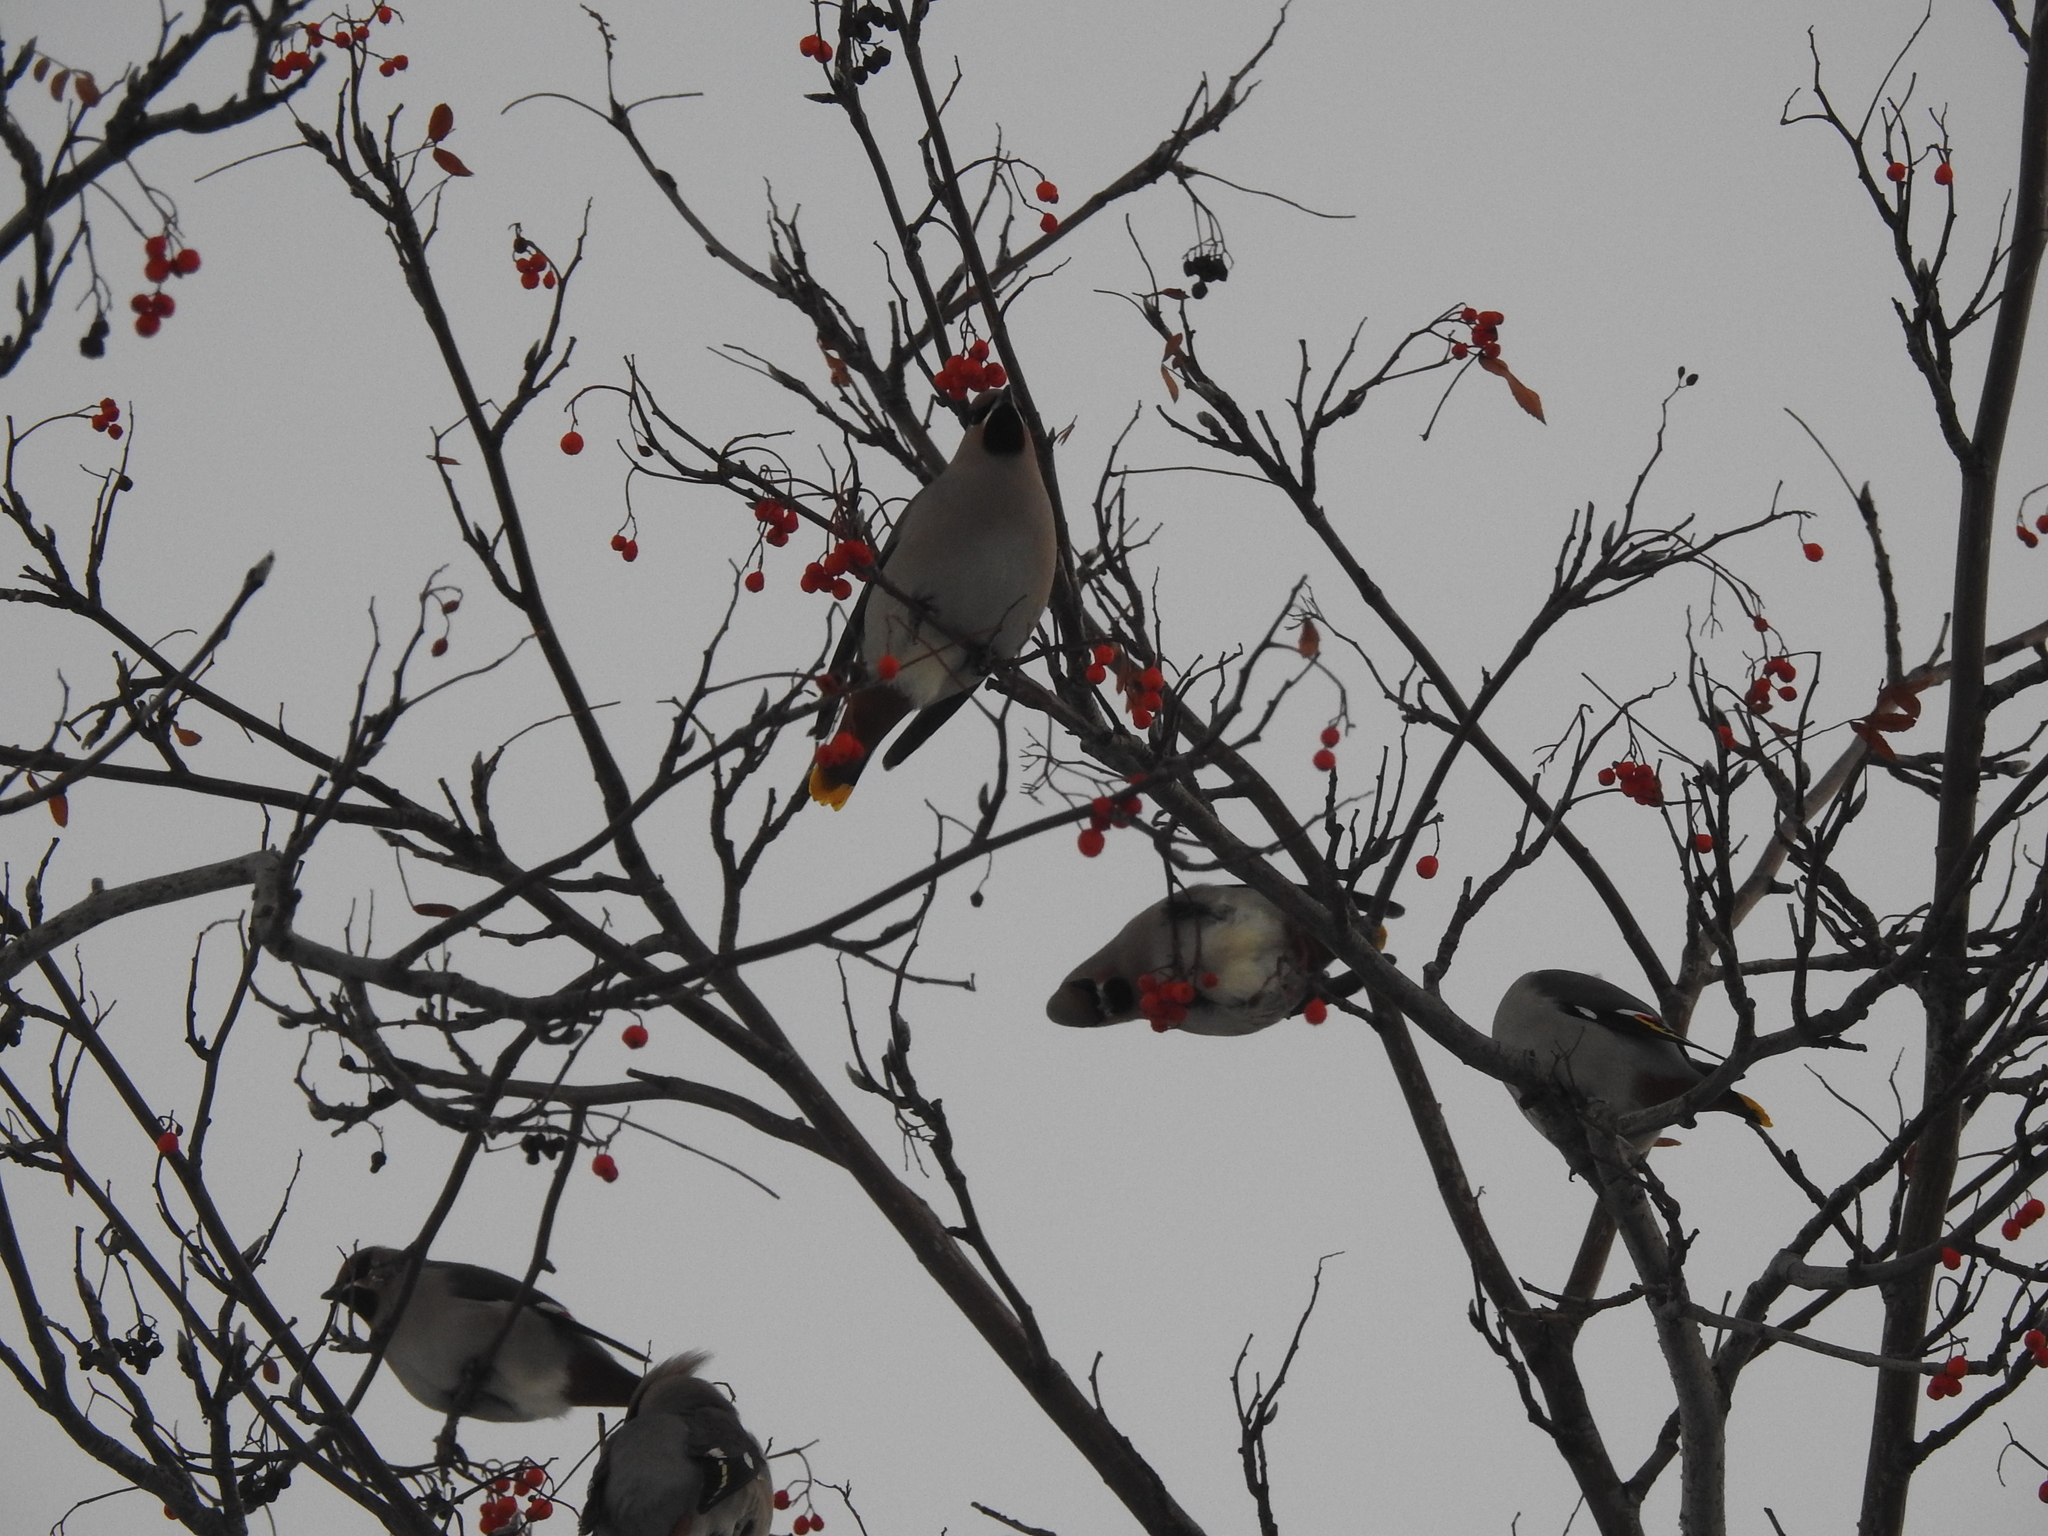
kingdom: Animalia
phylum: Chordata
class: Aves
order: Passeriformes
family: Bombycillidae
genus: Bombycilla
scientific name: Bombycilla garrulus
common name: Bohemian waxwing
